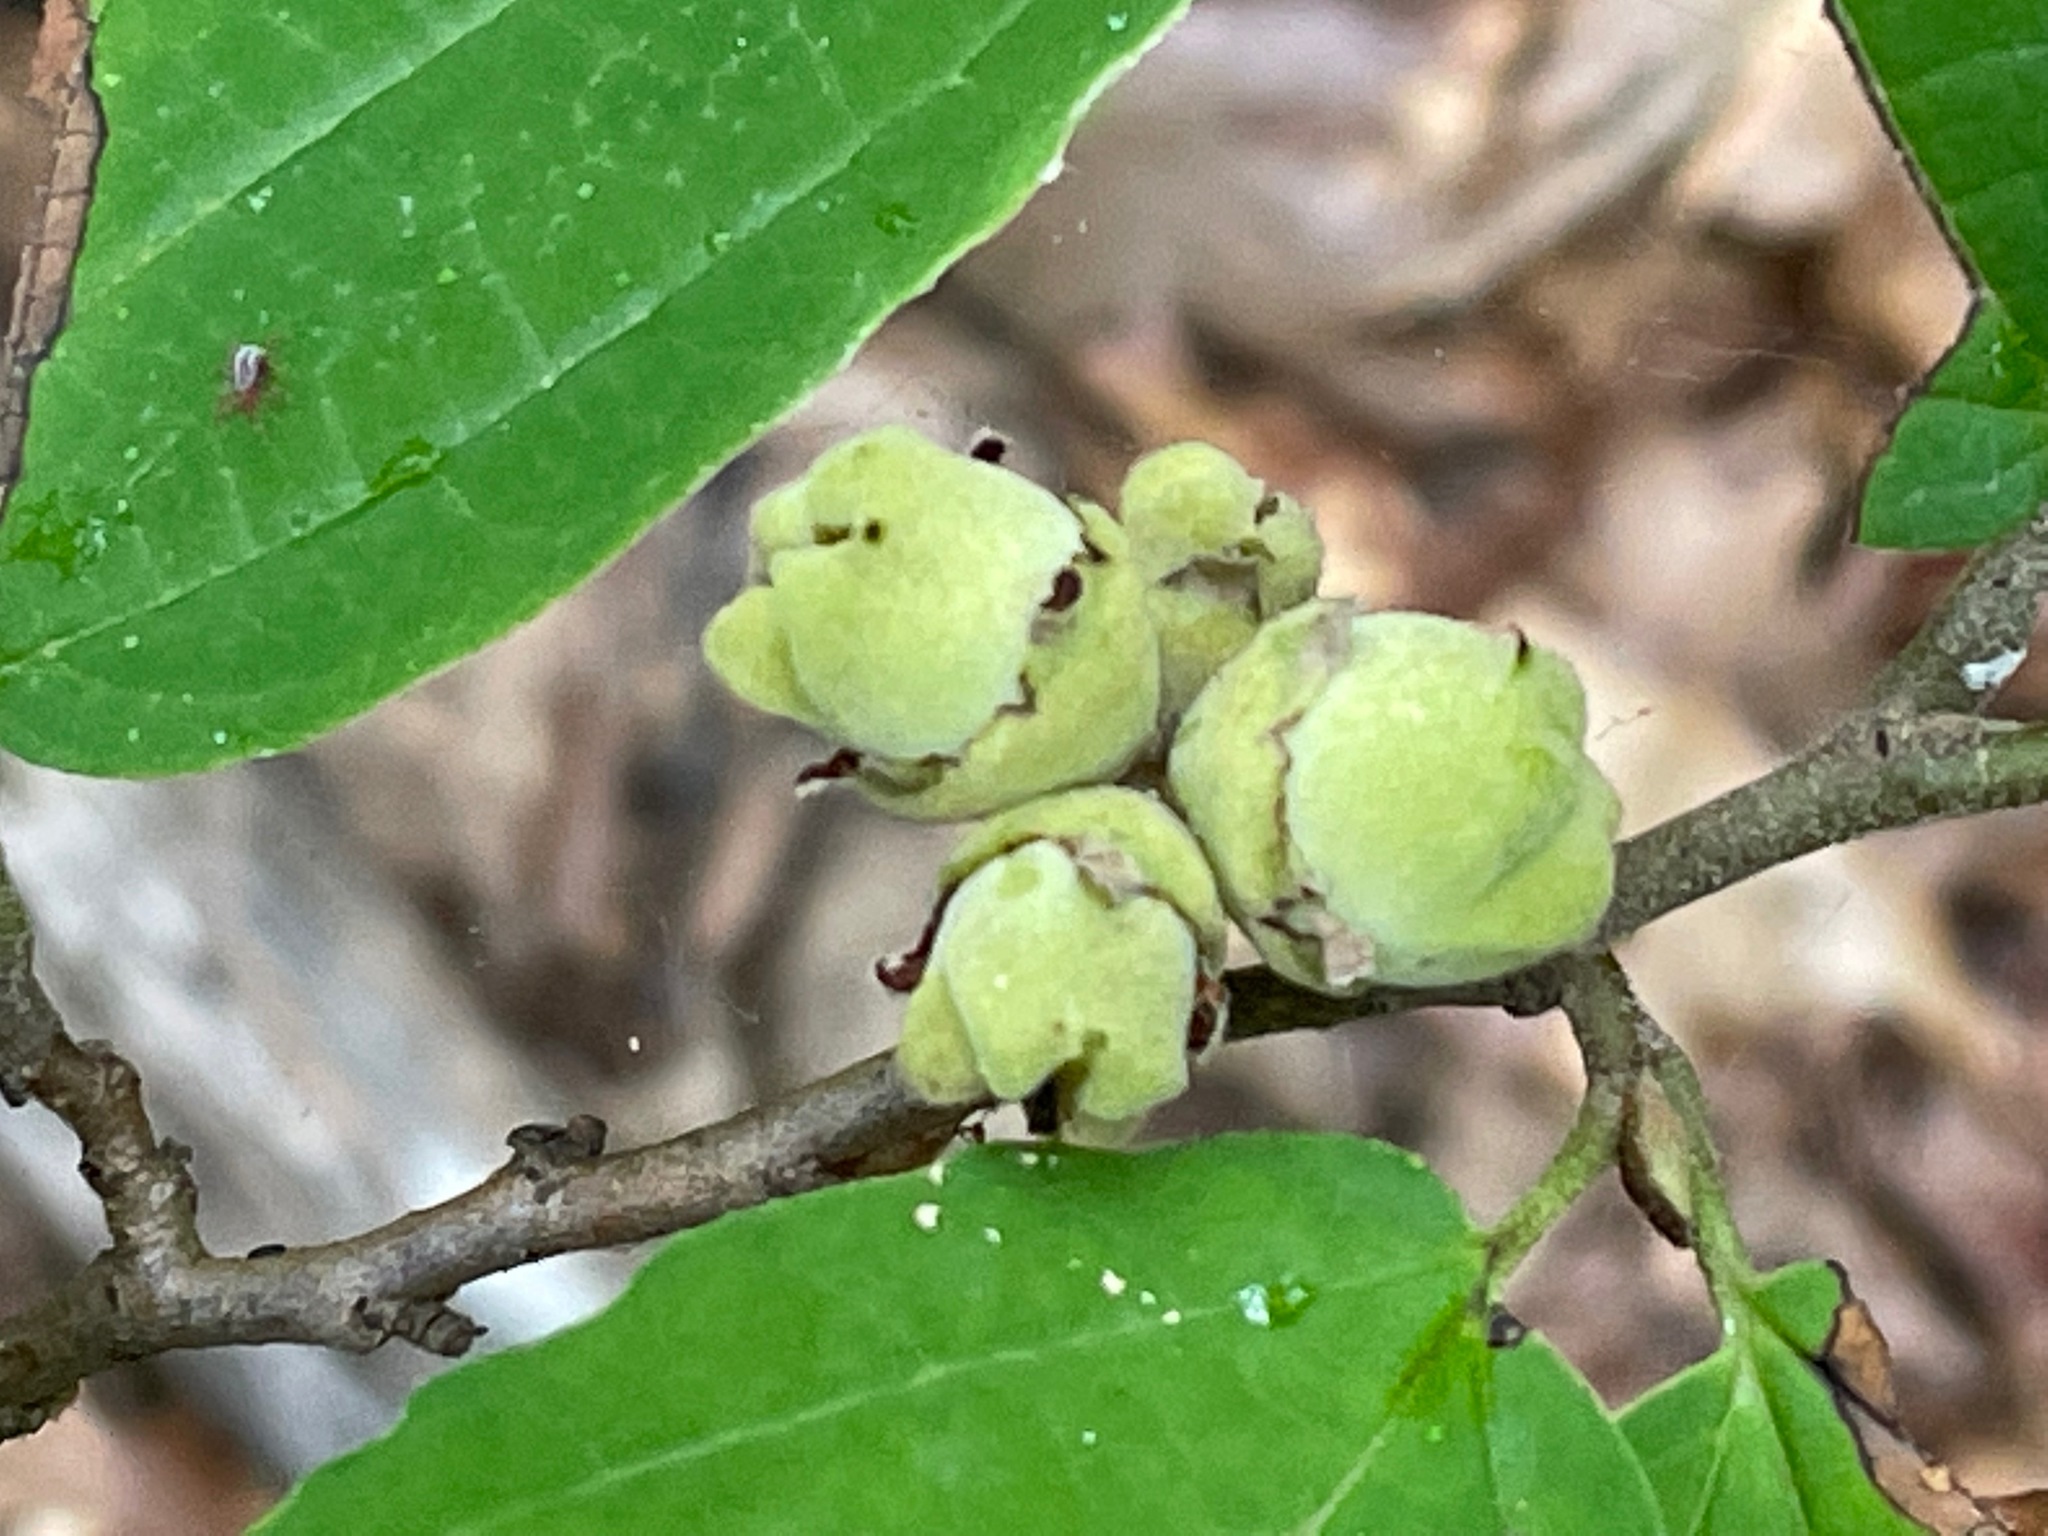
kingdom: Plantae
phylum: Tracheophyta
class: Magnoliopsida
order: Saxifragales
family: Hamamelidaceae
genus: Hamamelis
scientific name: Hamamelis virginiana
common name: Witch-hazel
